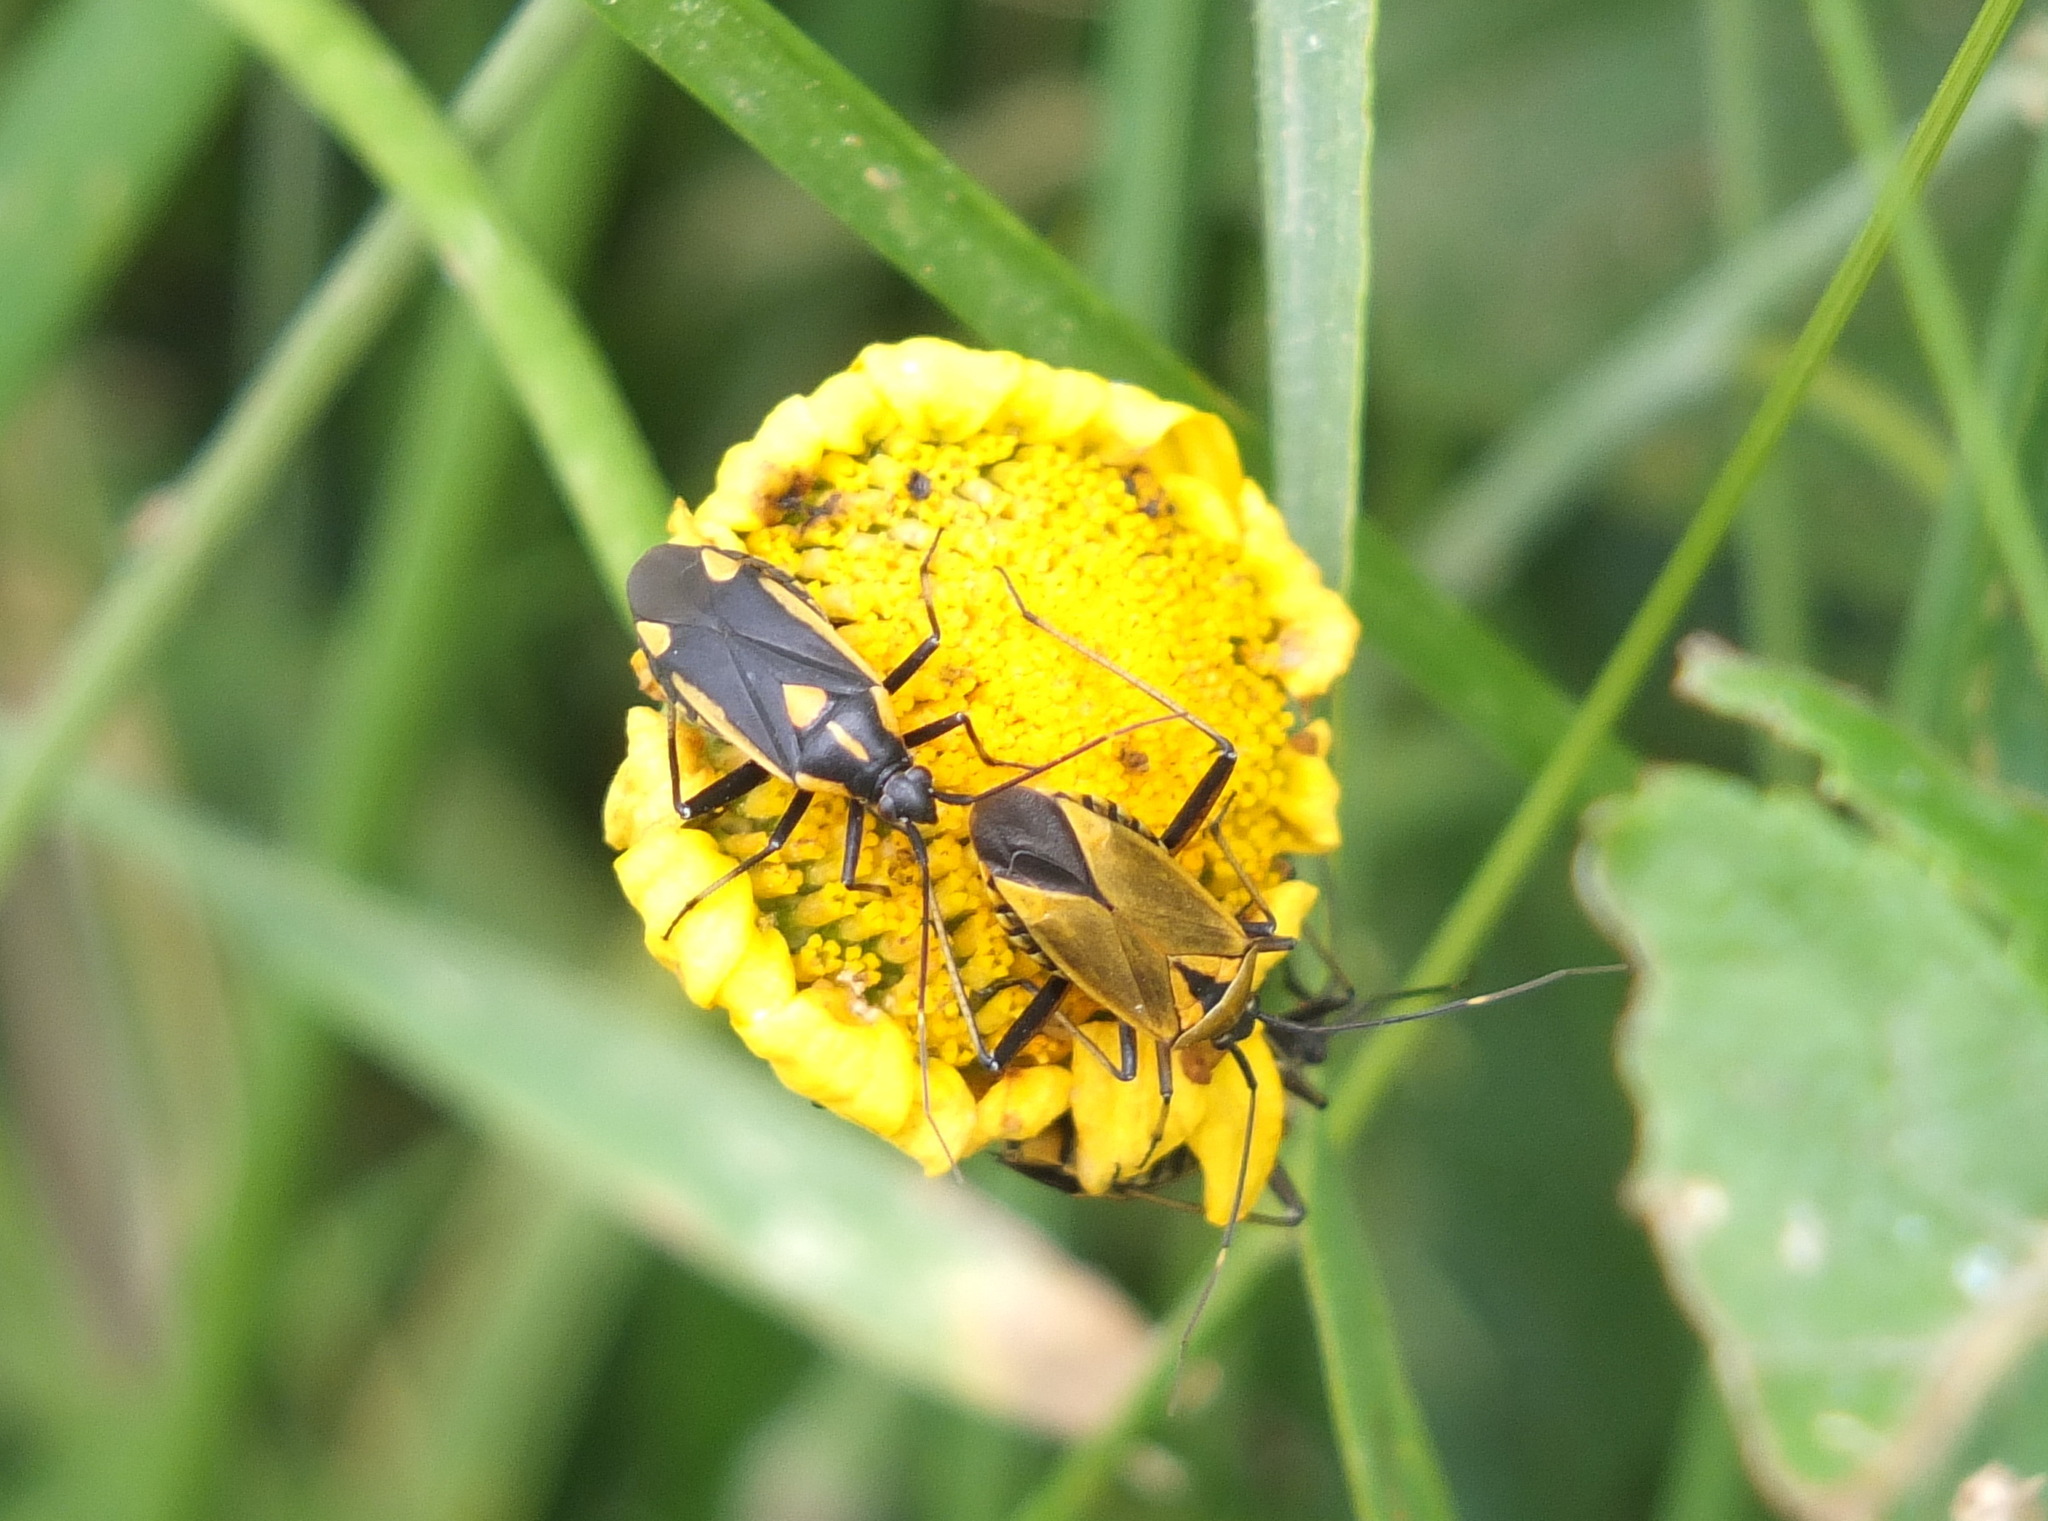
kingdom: Animalia
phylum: Arthropoda
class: Insecta
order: Hemiptera
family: Miridae
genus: Calocoris
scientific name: Calocoris nemoralis
